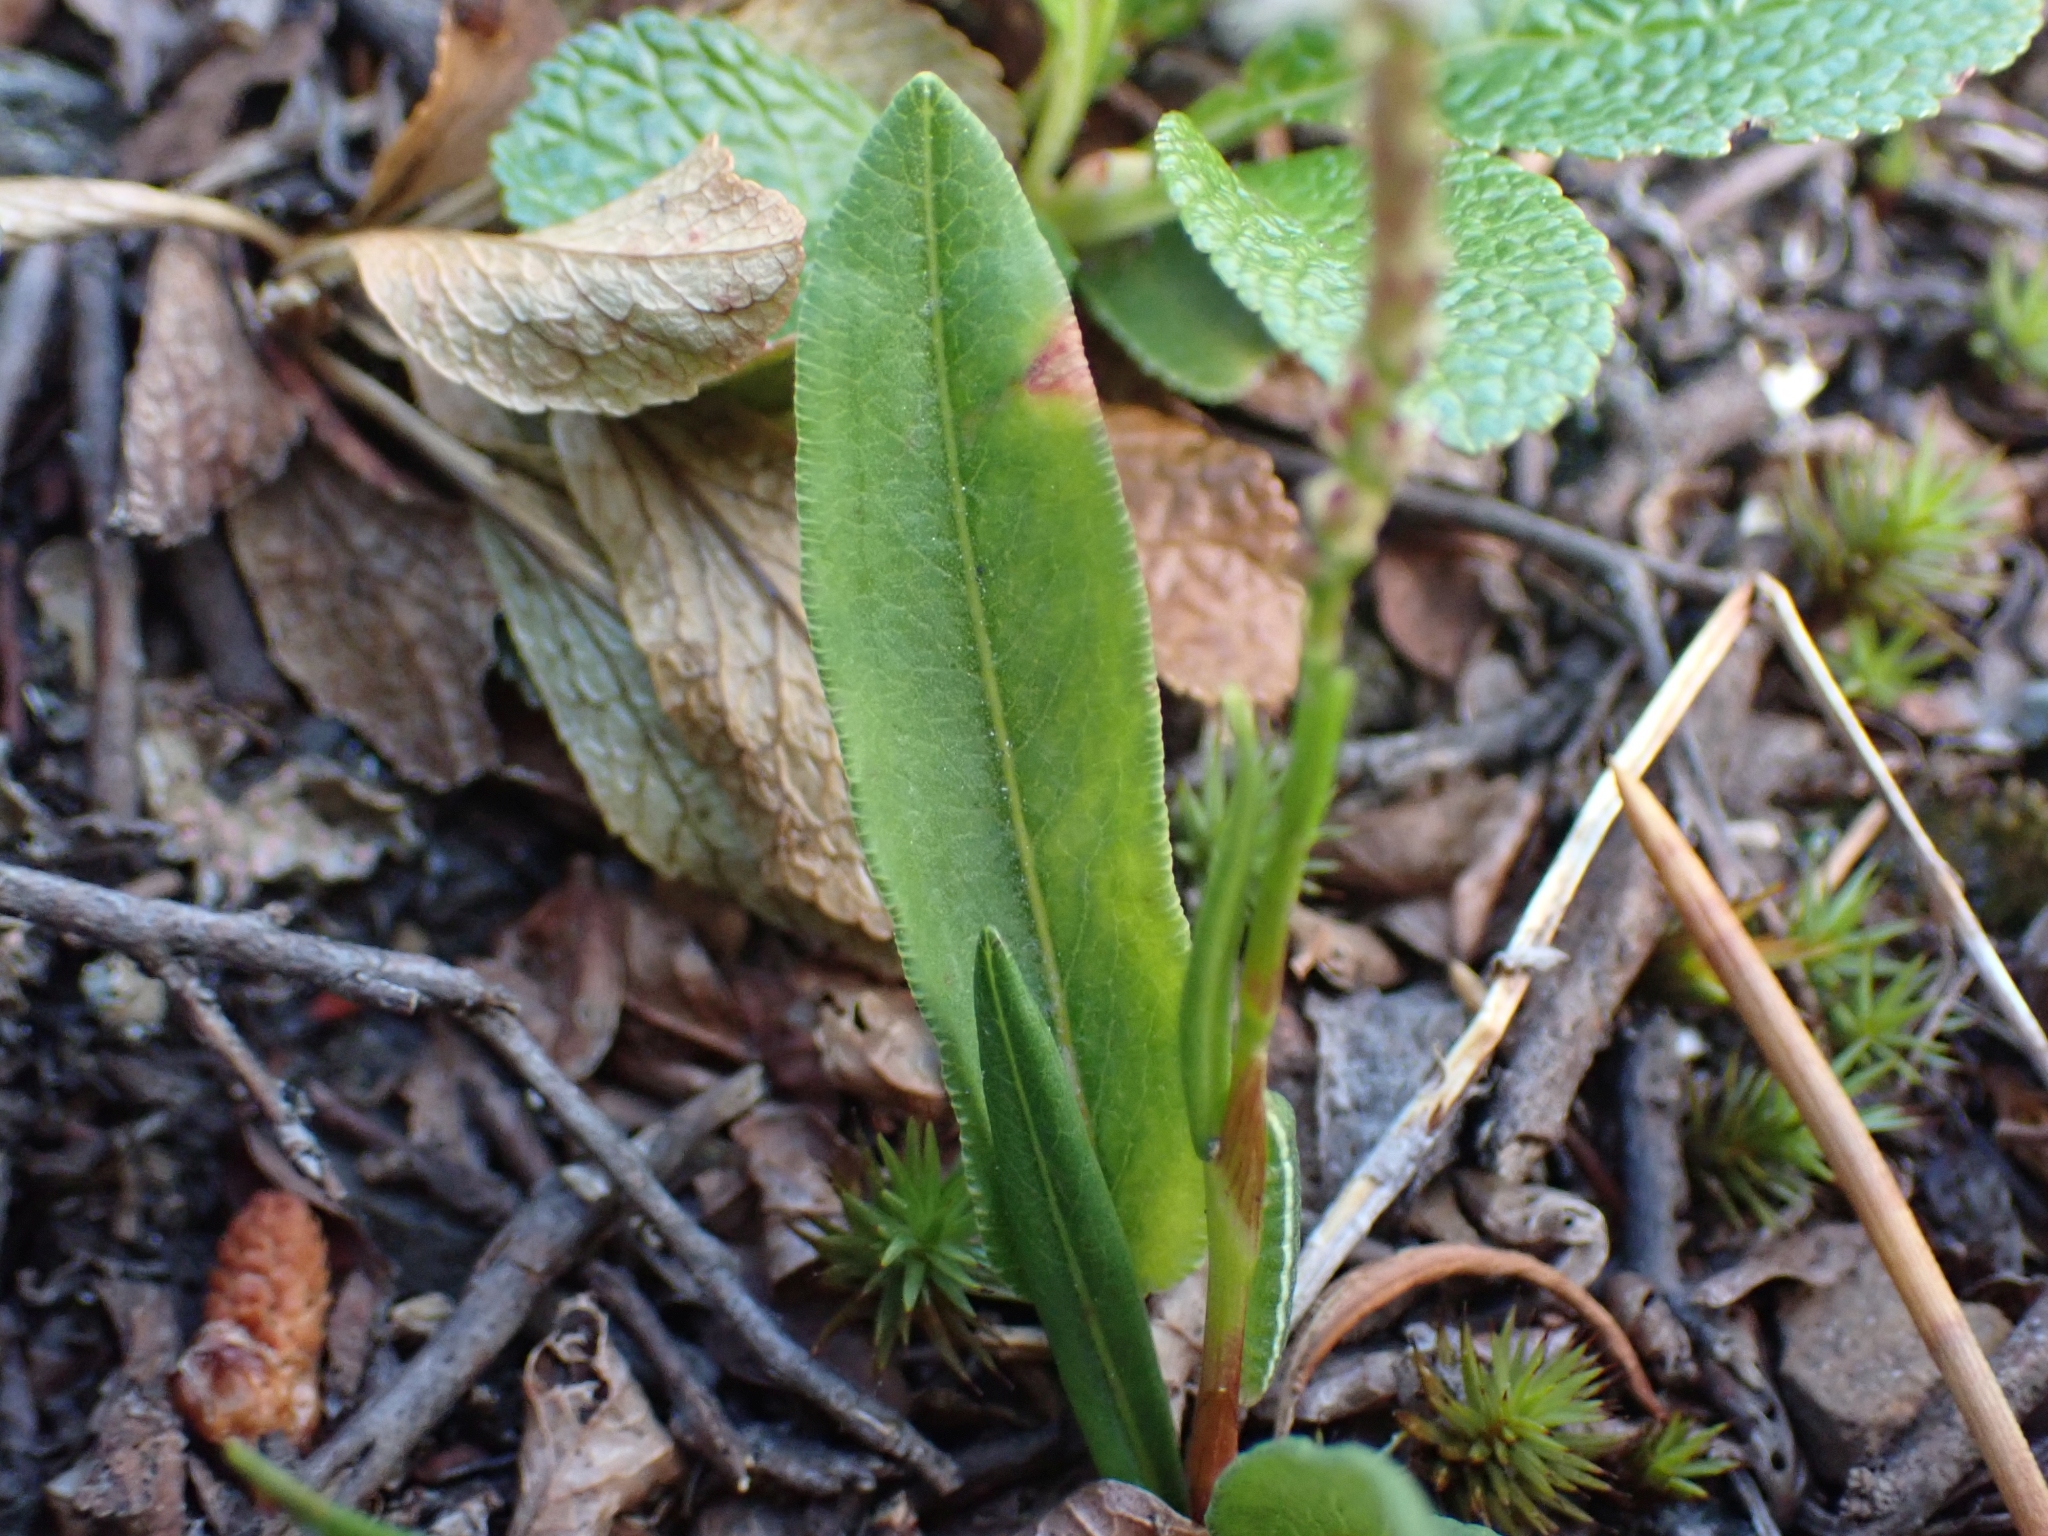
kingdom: Plantae
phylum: Tracheophyta
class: Magnoliopsida
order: Caryophyllales
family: Polygonaceae
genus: Bistorta
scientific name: Bistorta vivipara
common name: Alpine bistort
